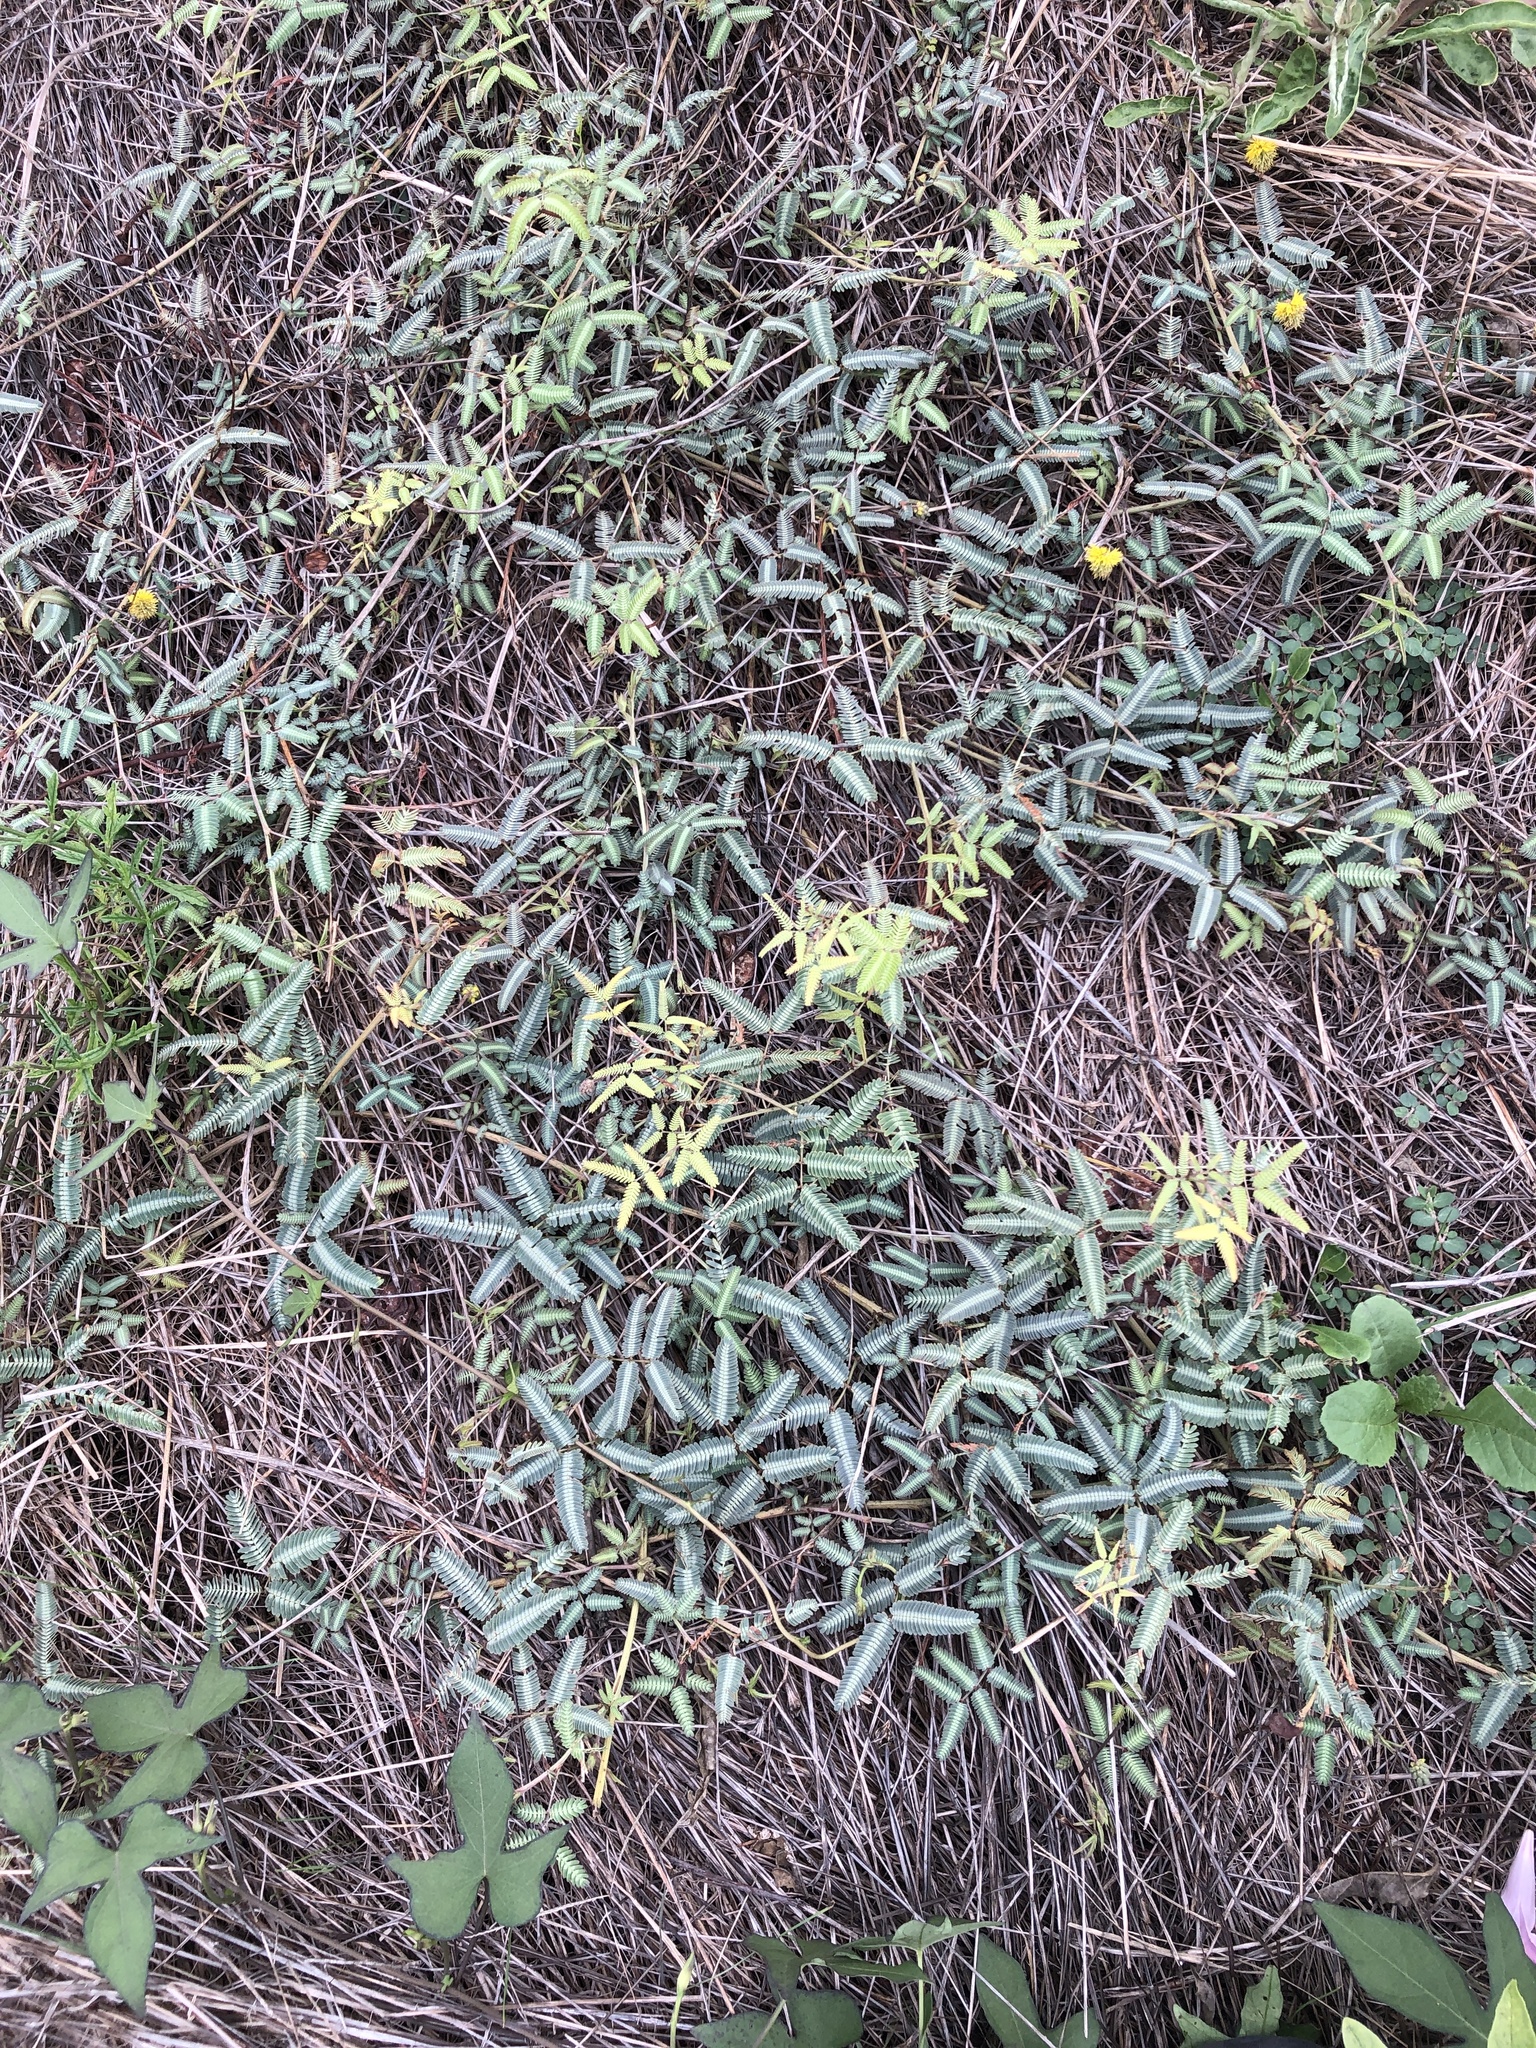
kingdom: Plantae
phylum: Tracheophyta
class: Magnoliopsida
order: Fabales
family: Fabaceae
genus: Neptunia
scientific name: Neptunia pubescens
